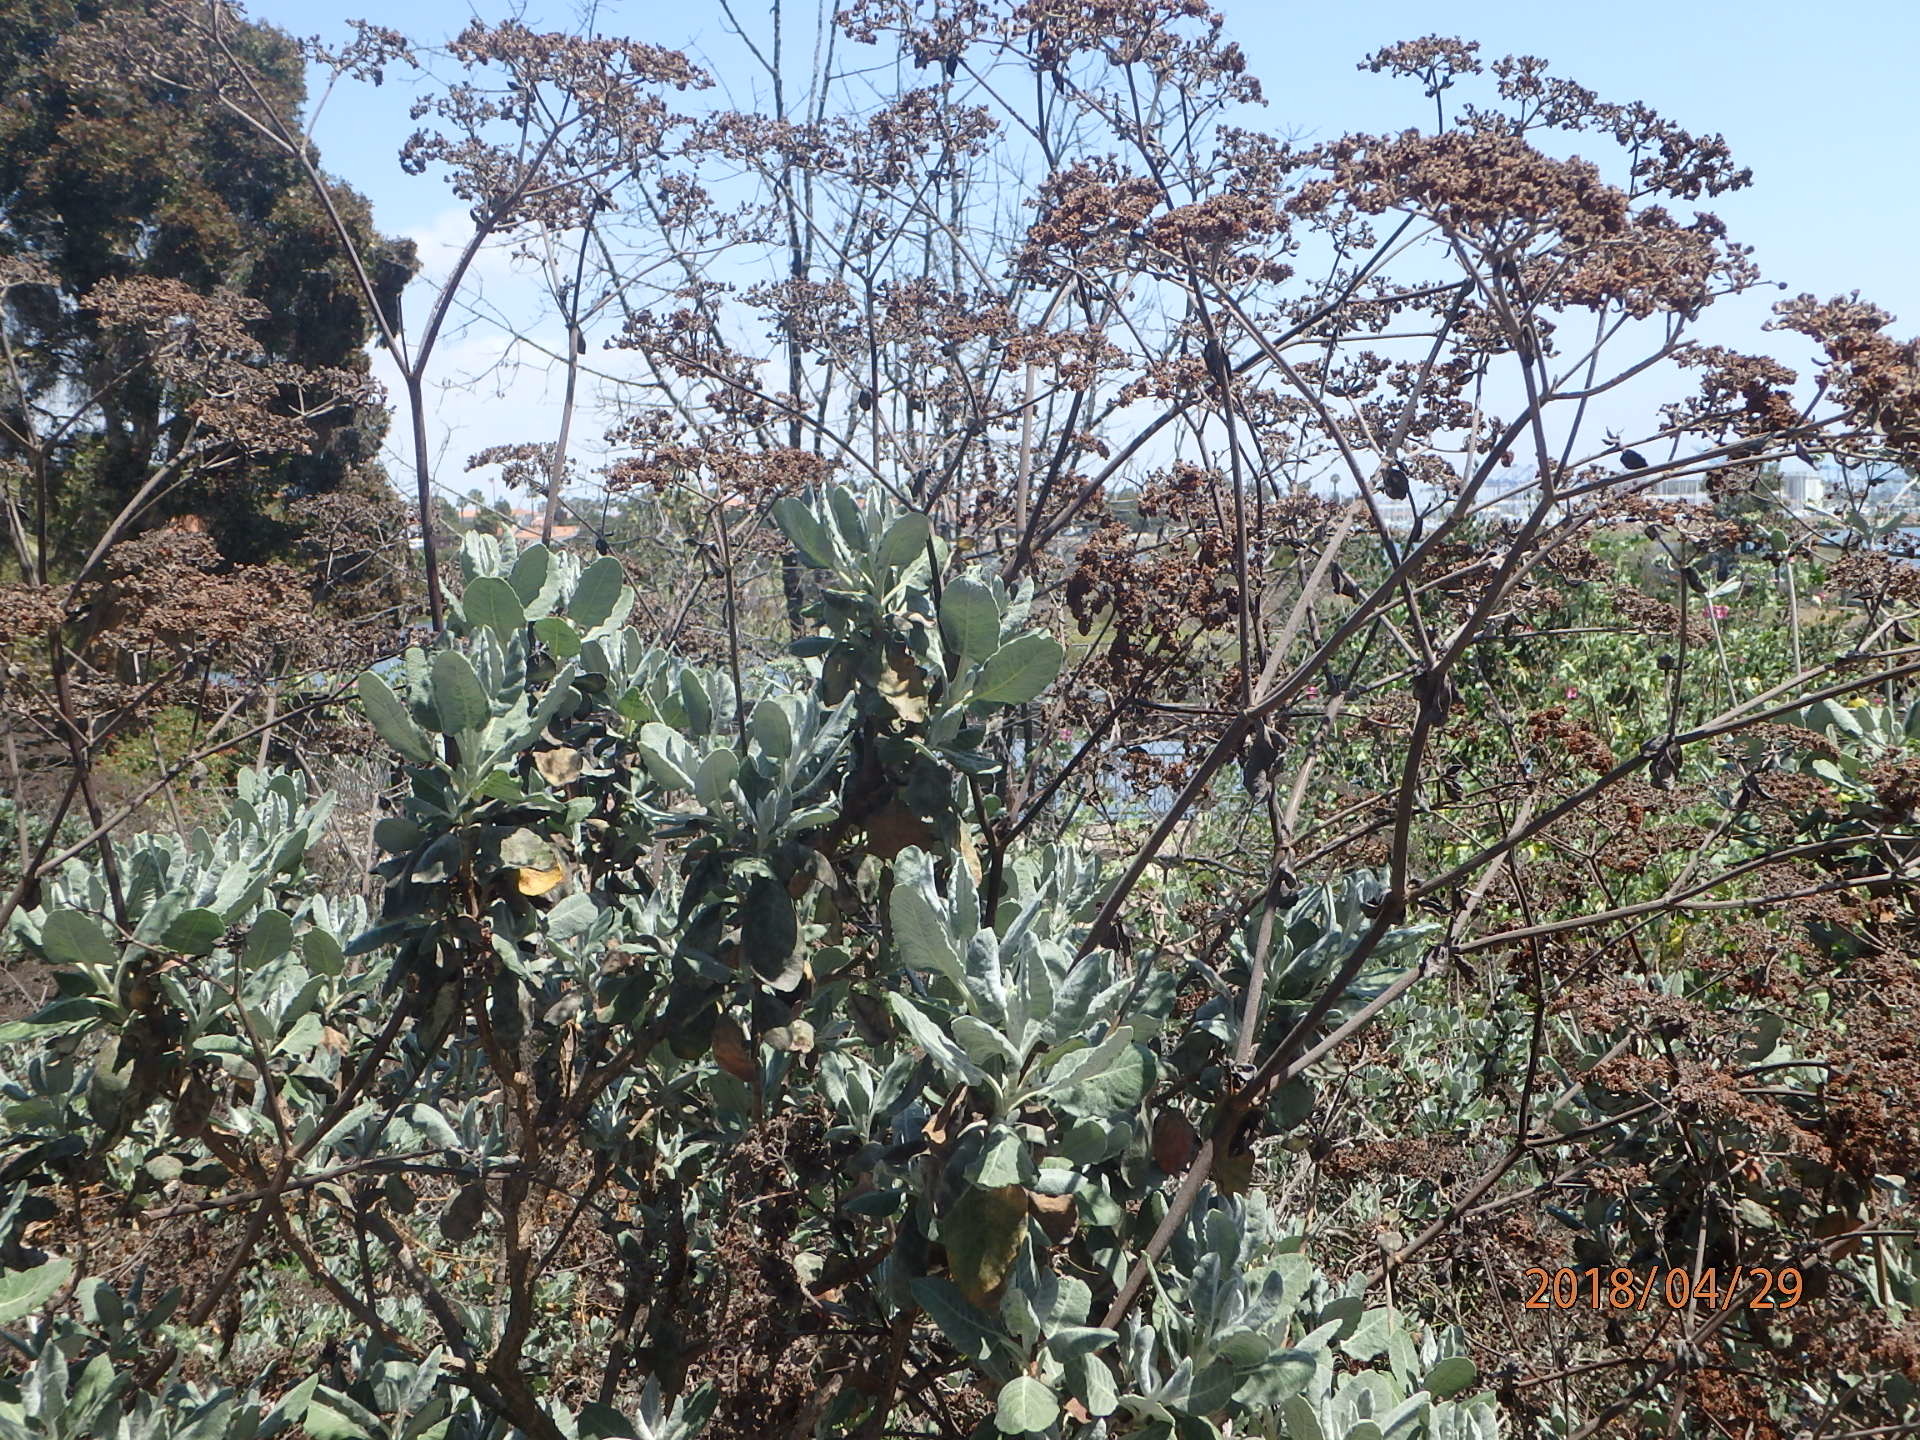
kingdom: Plantae
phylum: Tracheophyta
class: Magnoliopsida
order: Caryophyllales
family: Polygonaceae
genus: Eriogonum
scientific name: Eriogonum giganteum
